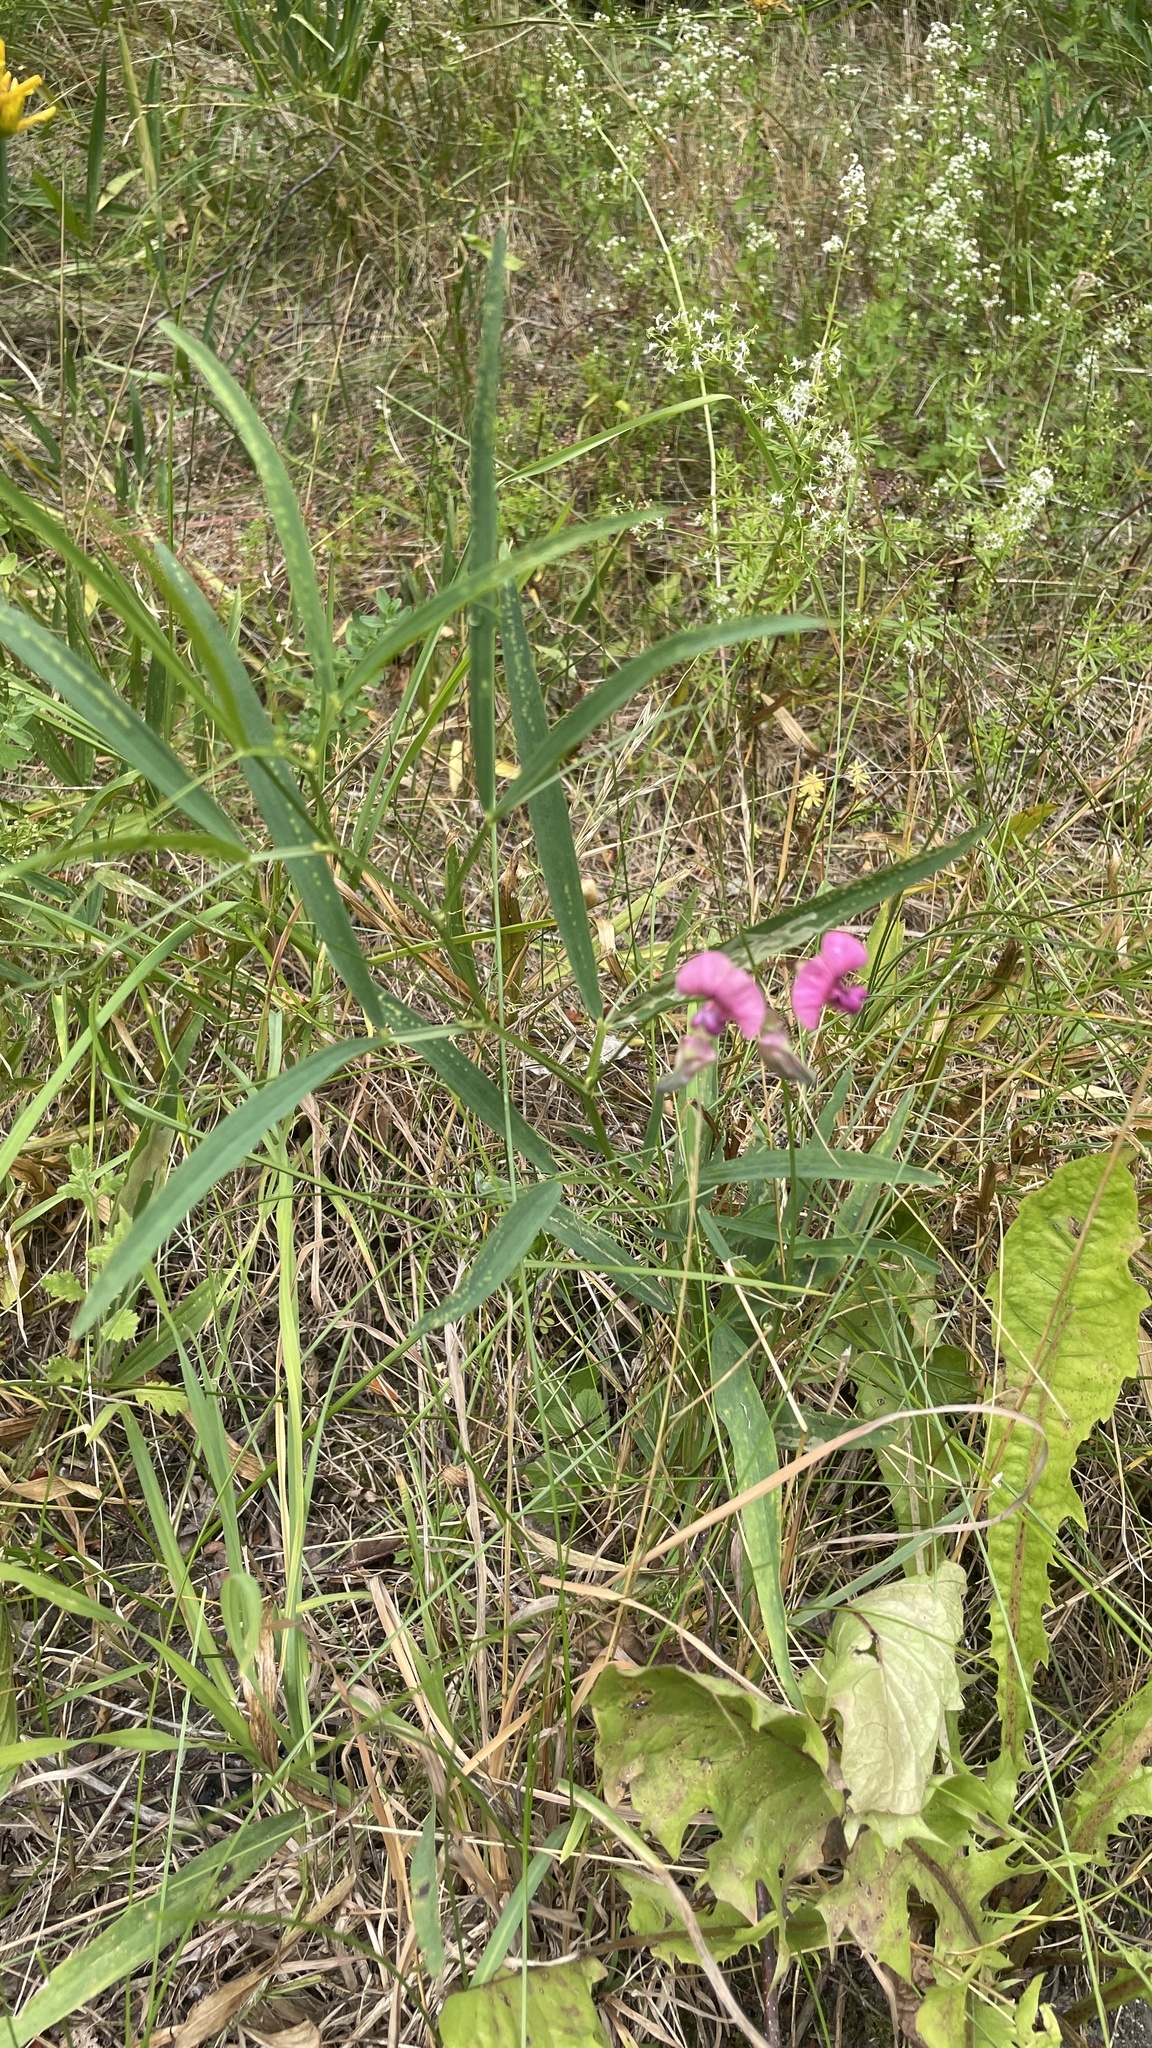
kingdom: Plantae
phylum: Tracheophyta
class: Magnoliopsida
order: Fabales
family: Fabaceae
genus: Lathyrus
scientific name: Lathyrus sylvestris
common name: Flat pea
